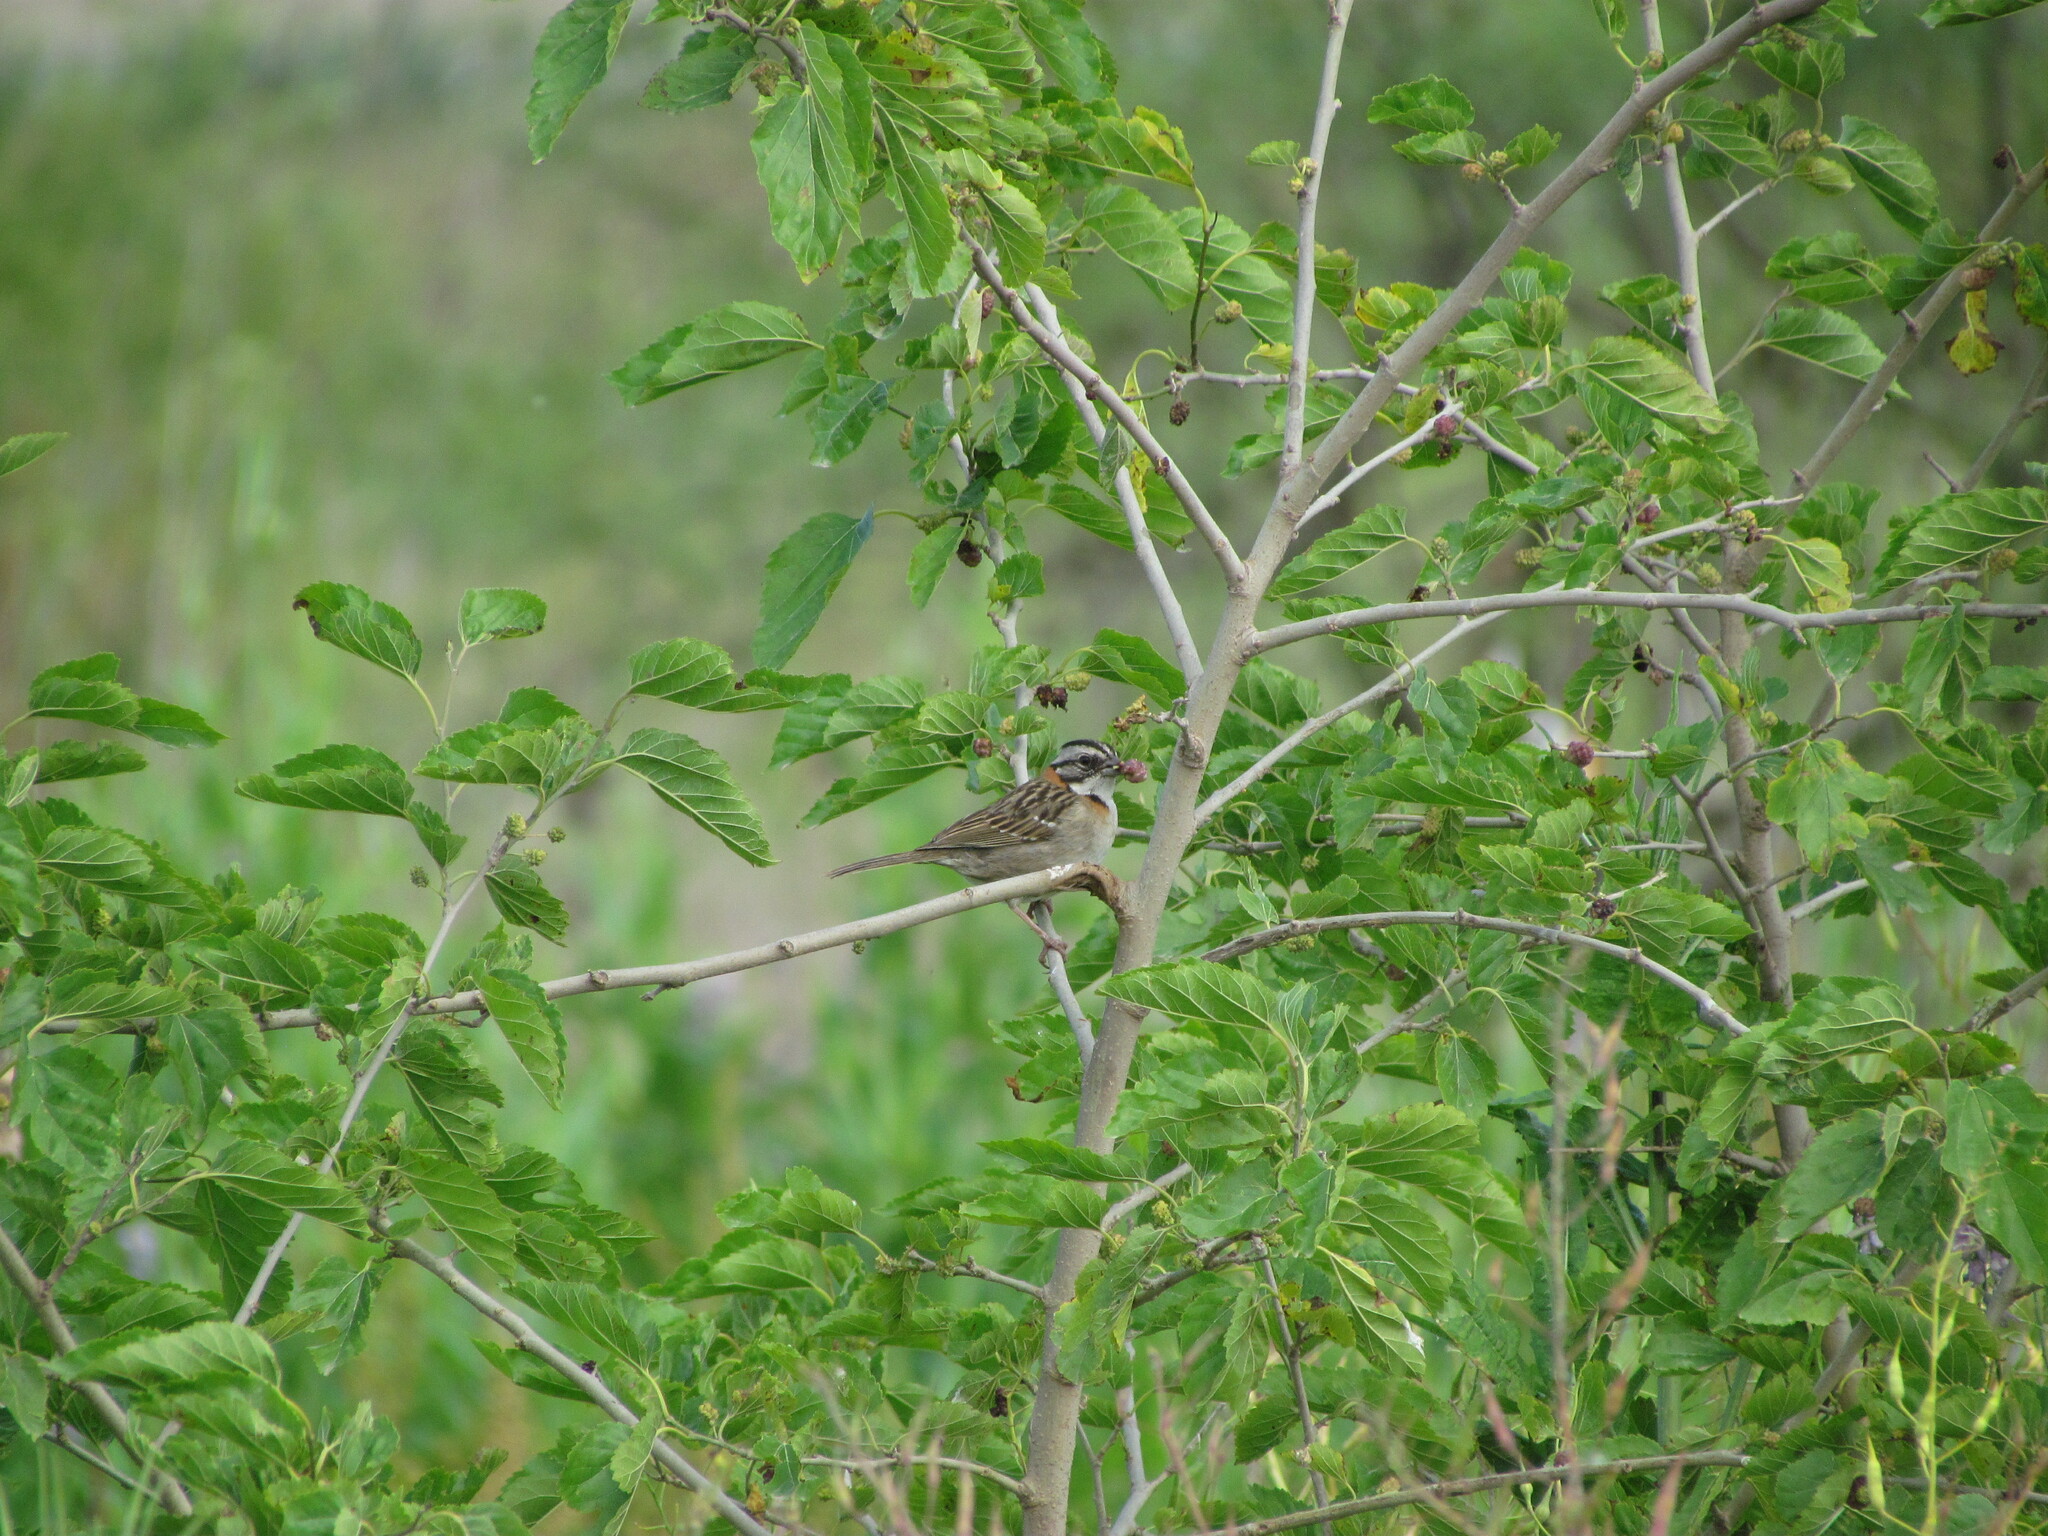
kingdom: Animalia
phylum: Chordata
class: Aves
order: Passeriformes
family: Passerellidae
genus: Zonotrichia
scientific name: Zonotrichia capensis
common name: Rufous-collared sparrow
